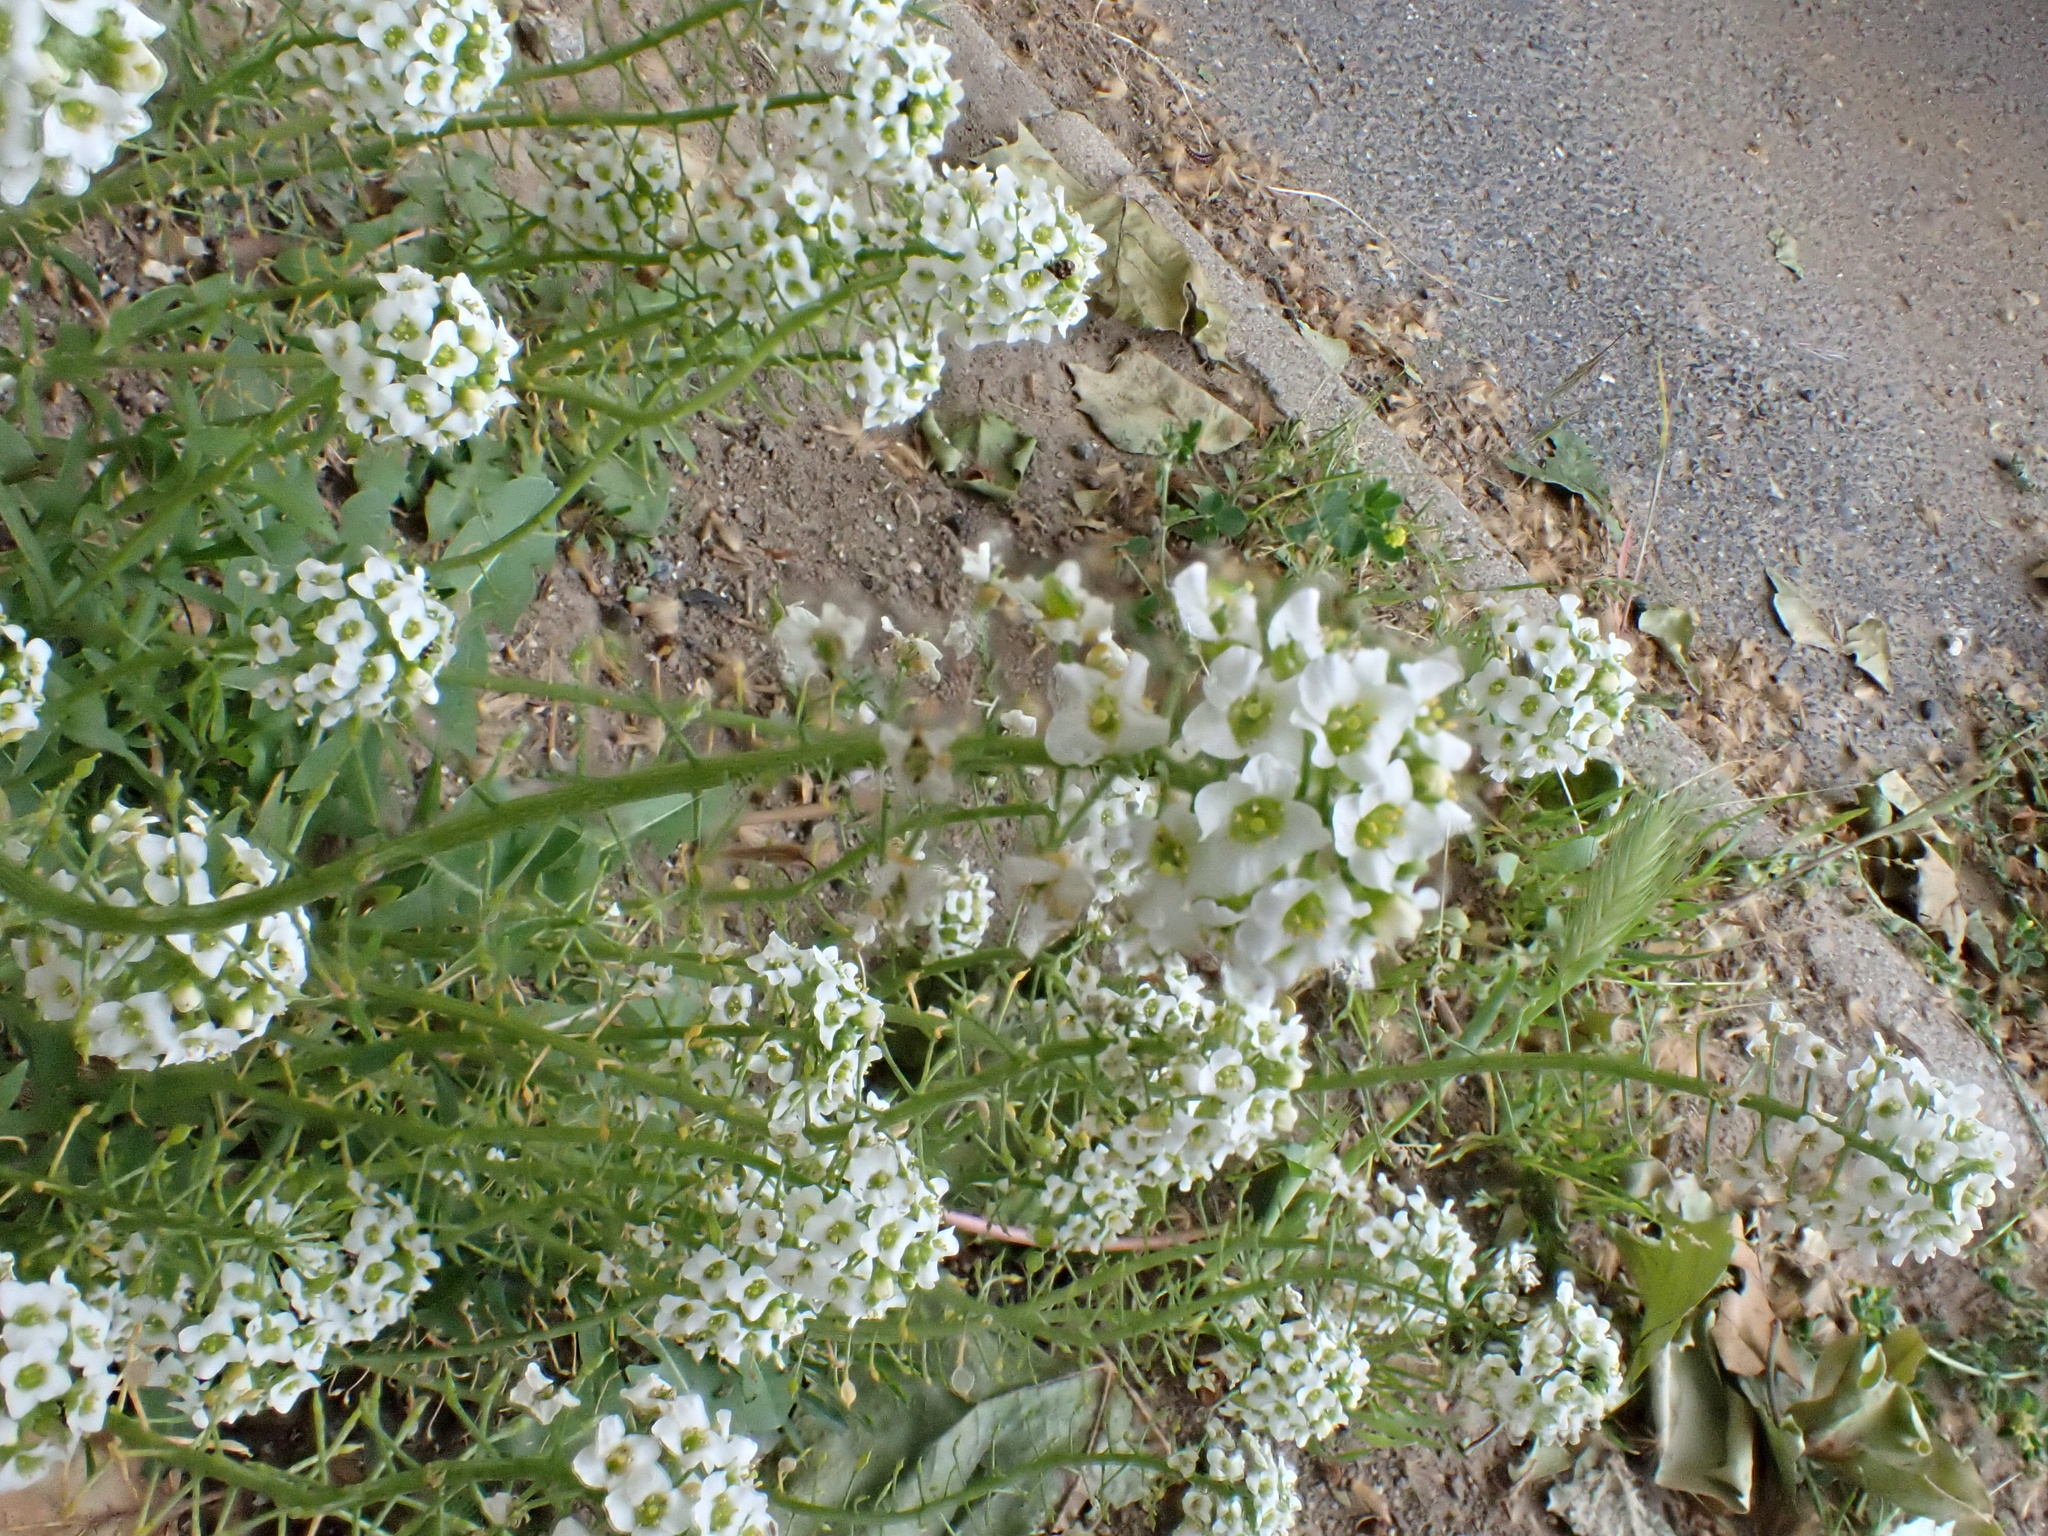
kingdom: Plantae
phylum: Tracheophyta
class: Magnoliopsida
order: Brassicales
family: Brassicaceae
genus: Lobularia
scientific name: Lobularia maritima
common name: Sweet alison
